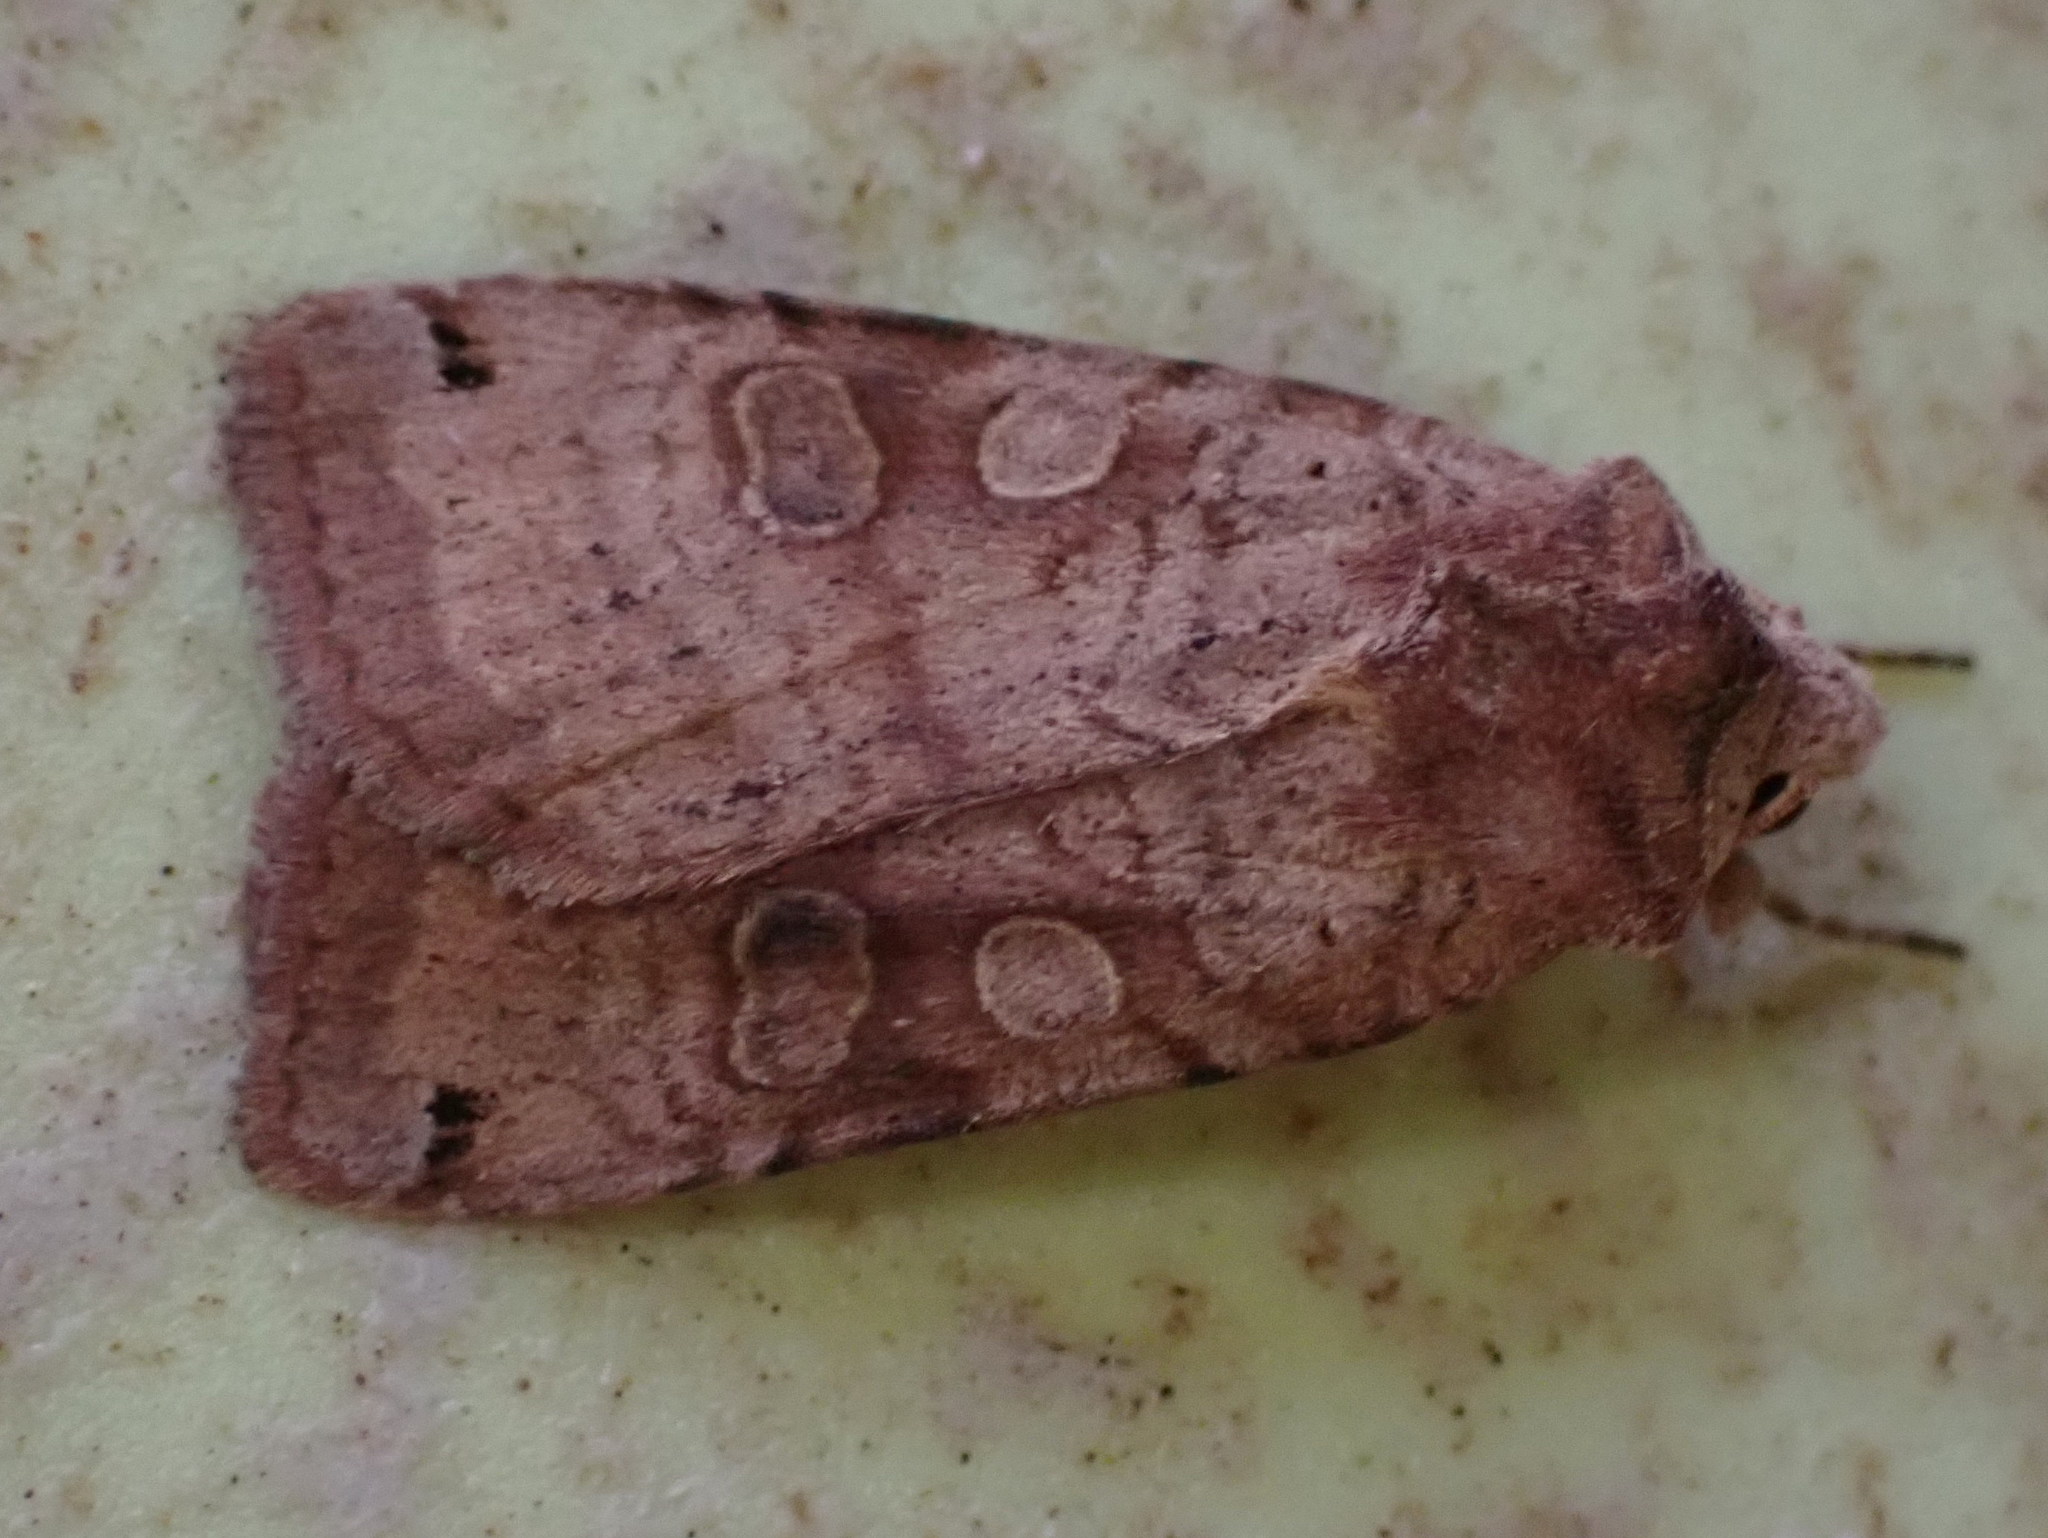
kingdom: Animalia
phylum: Arthropoda
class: Insecta
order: Lepidoptera
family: Noctuidae
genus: Xestia
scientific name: Xestia smithii
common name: Smith's dart
